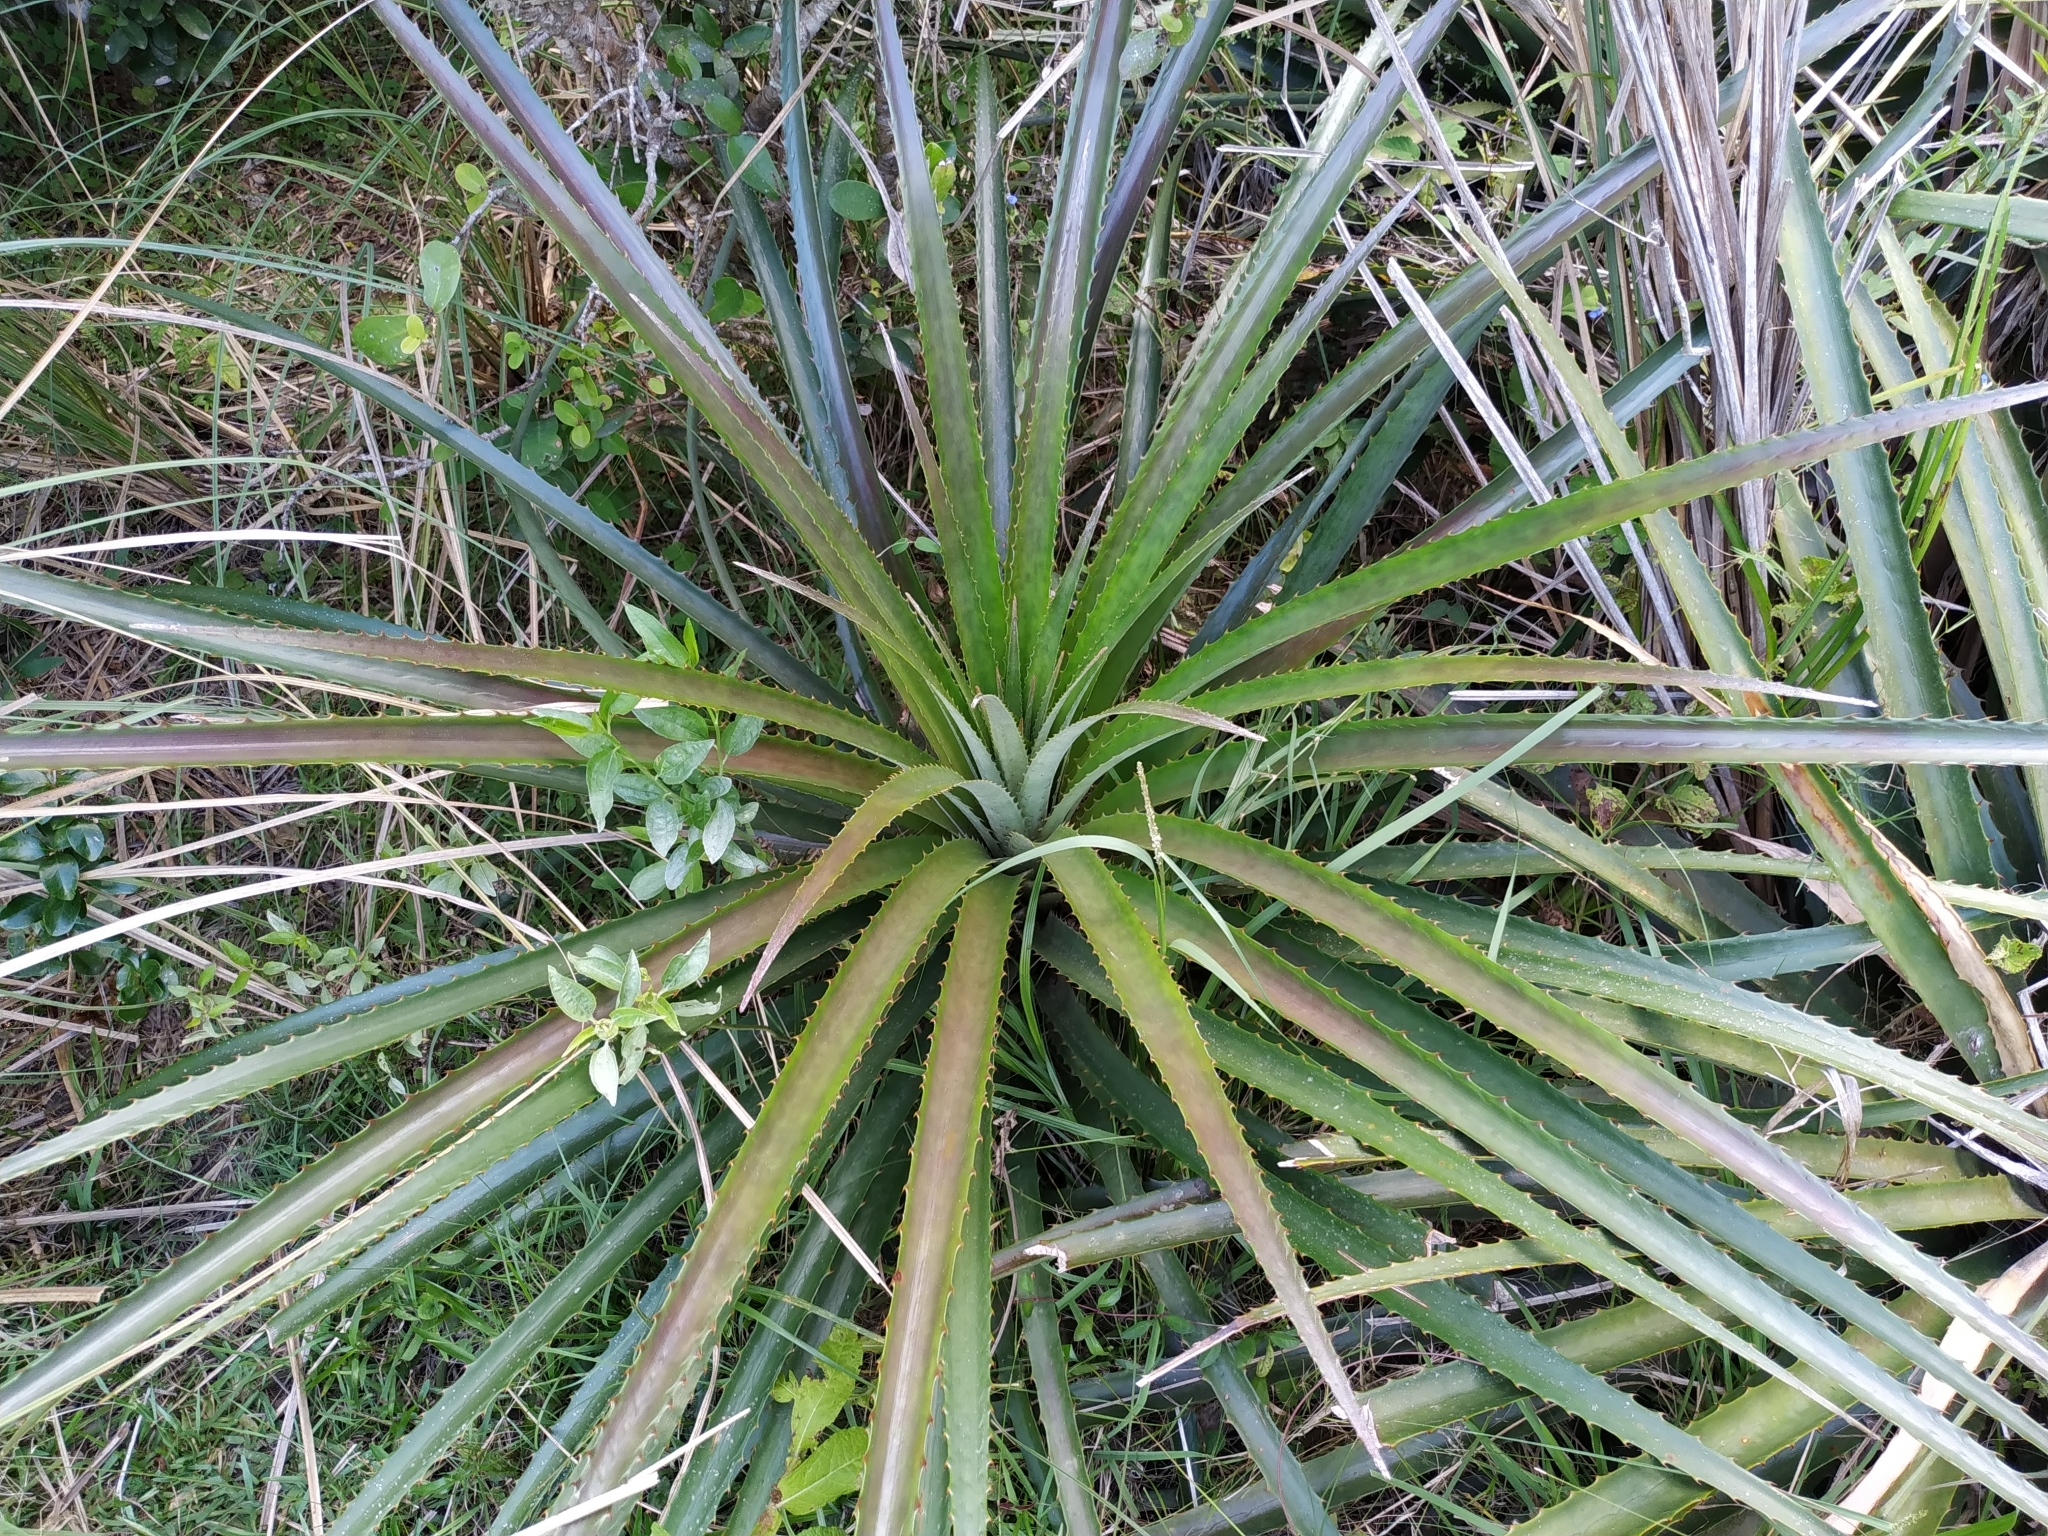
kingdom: Plantae
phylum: Tracheophyta
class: Liliopsida
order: Poales
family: Bromeliaceae
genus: Bromelia
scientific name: Bromelia antiacantha
